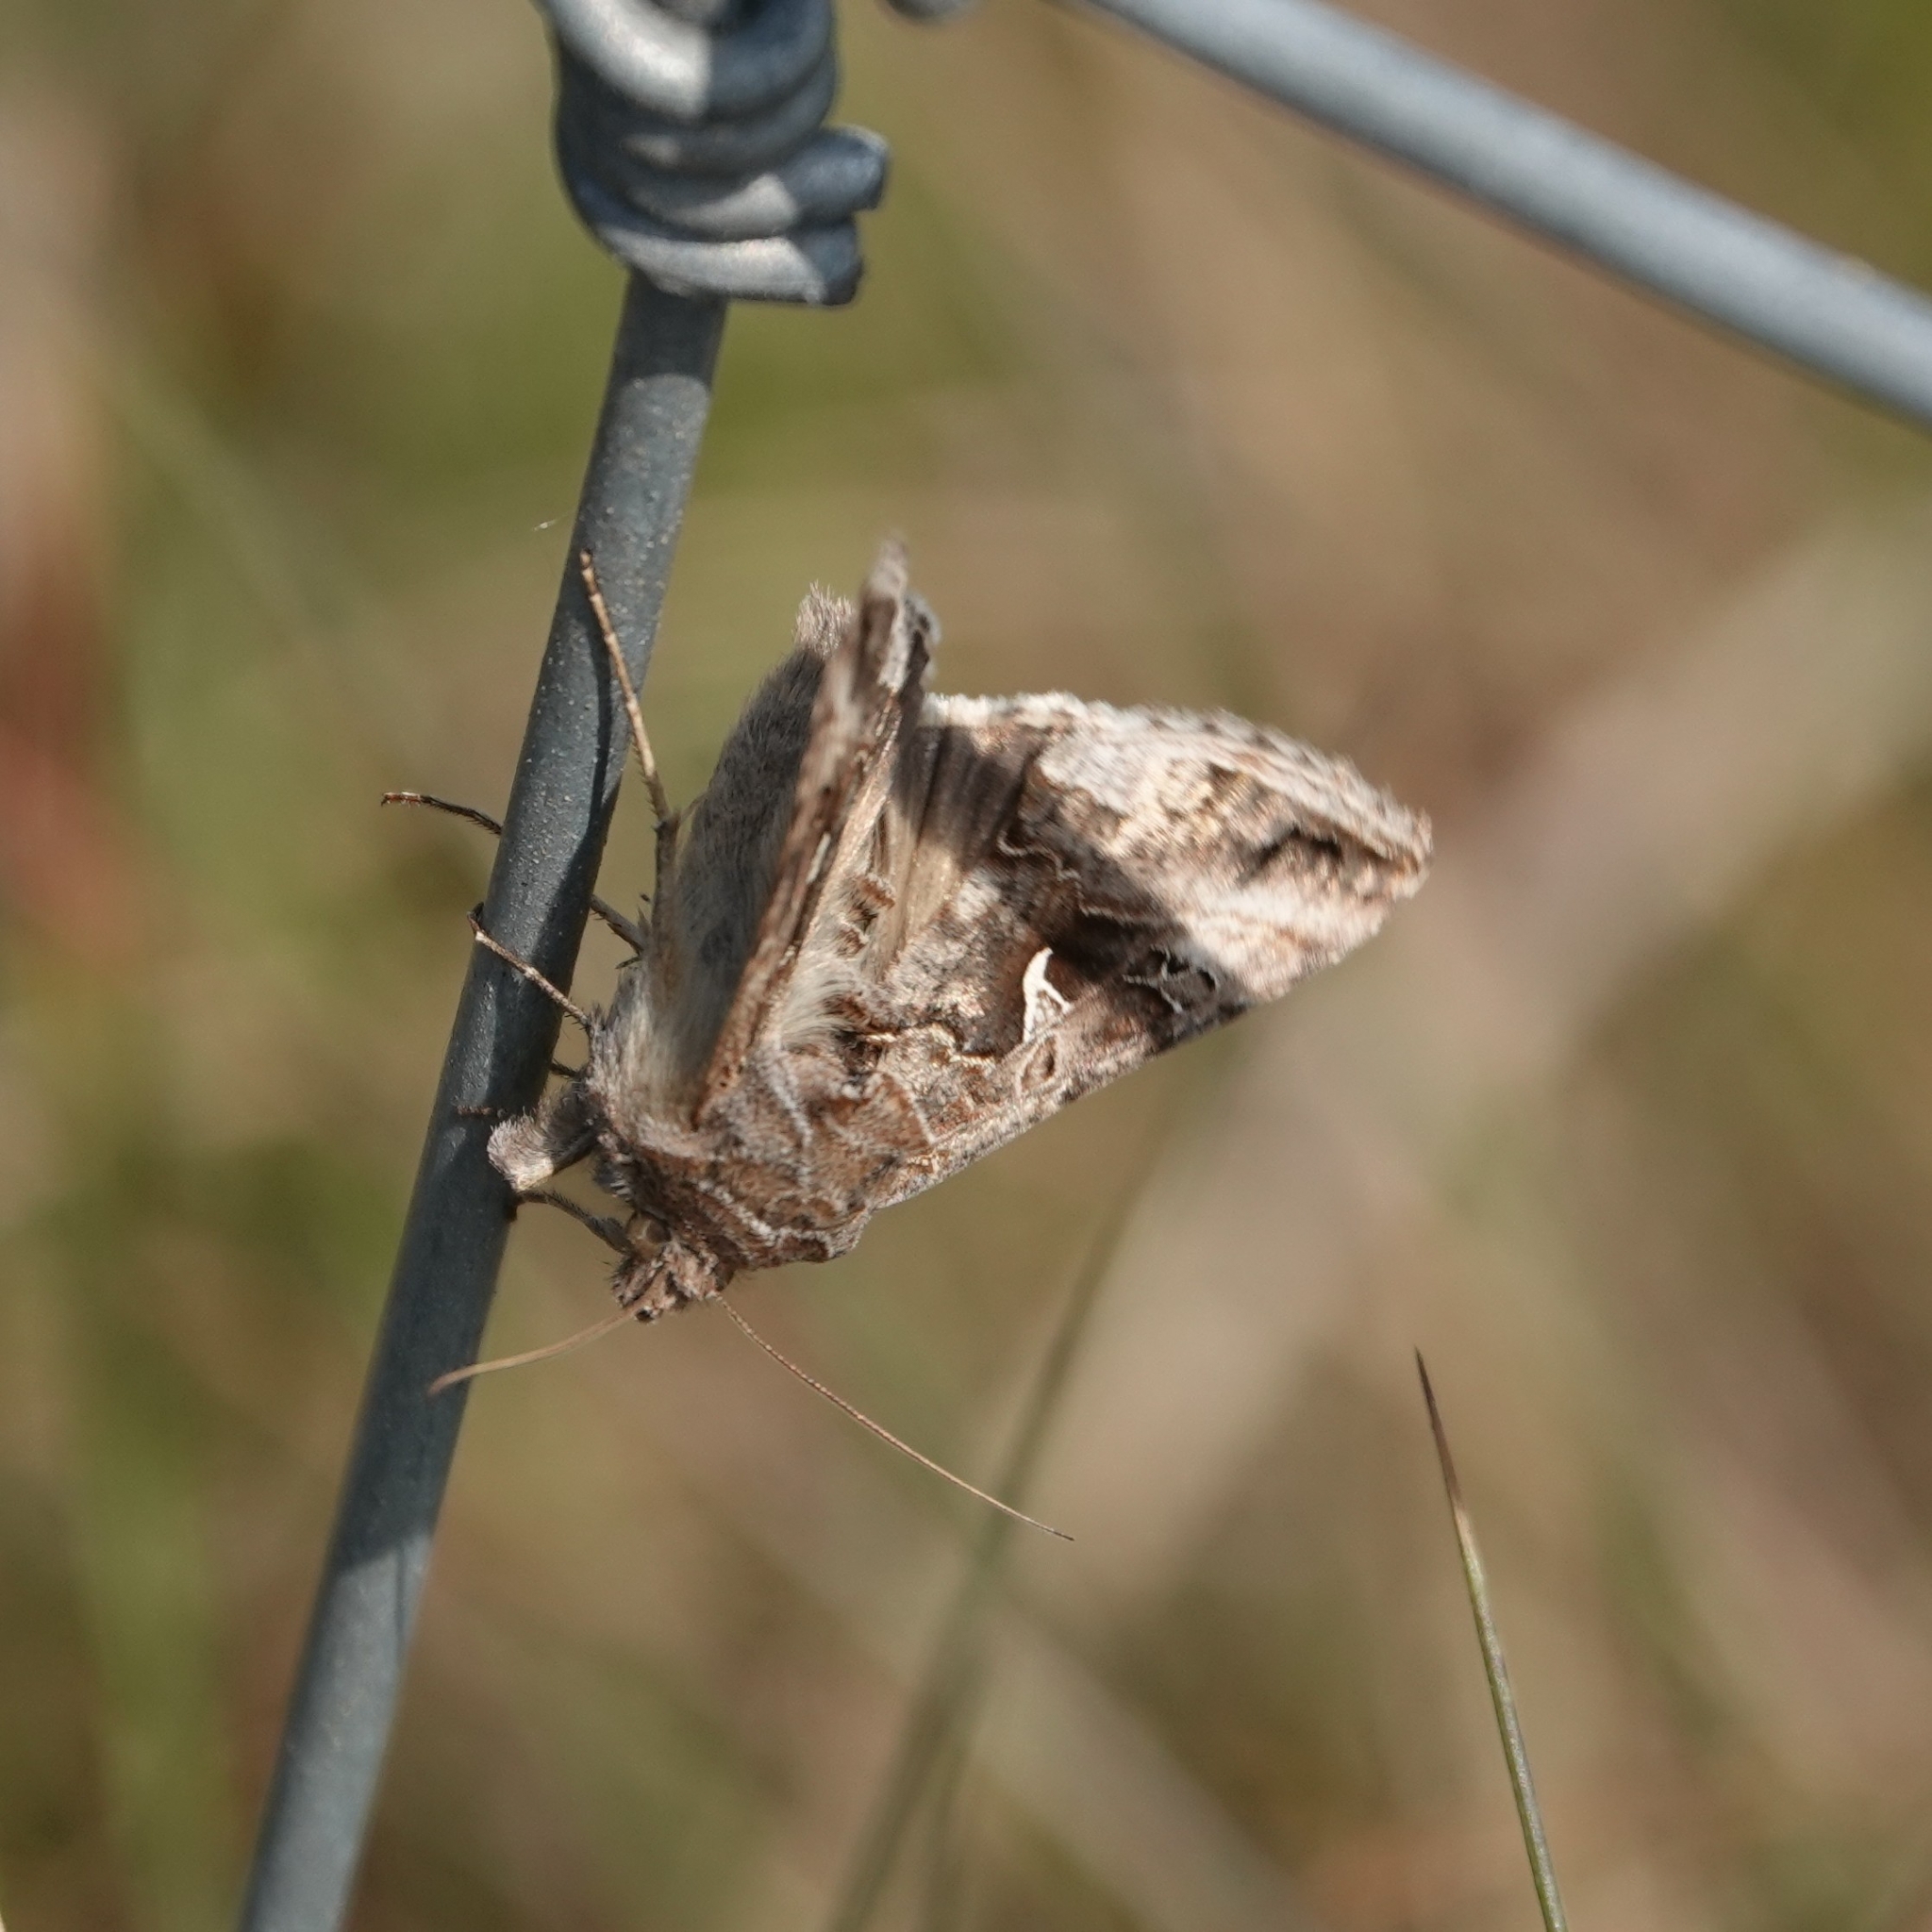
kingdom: Animalia
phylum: Arthropoda
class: Insecta
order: Lepidoptera
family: Noctuidae
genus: Autographa
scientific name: Autographa gamma
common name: Silver y
